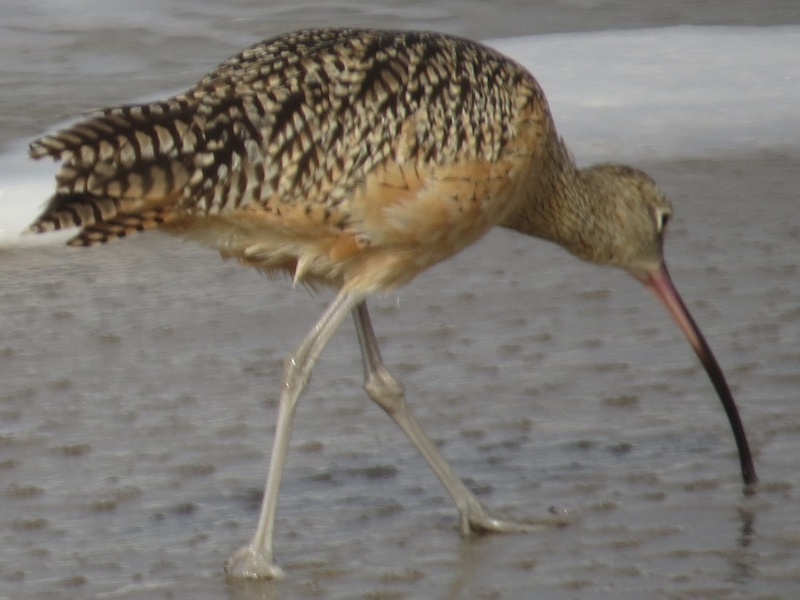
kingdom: Animalia
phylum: Chordata
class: Aves
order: Charadriiformes
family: Scolopacidae
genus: Numenius
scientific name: Numenius americanus
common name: Long-billed curlew
